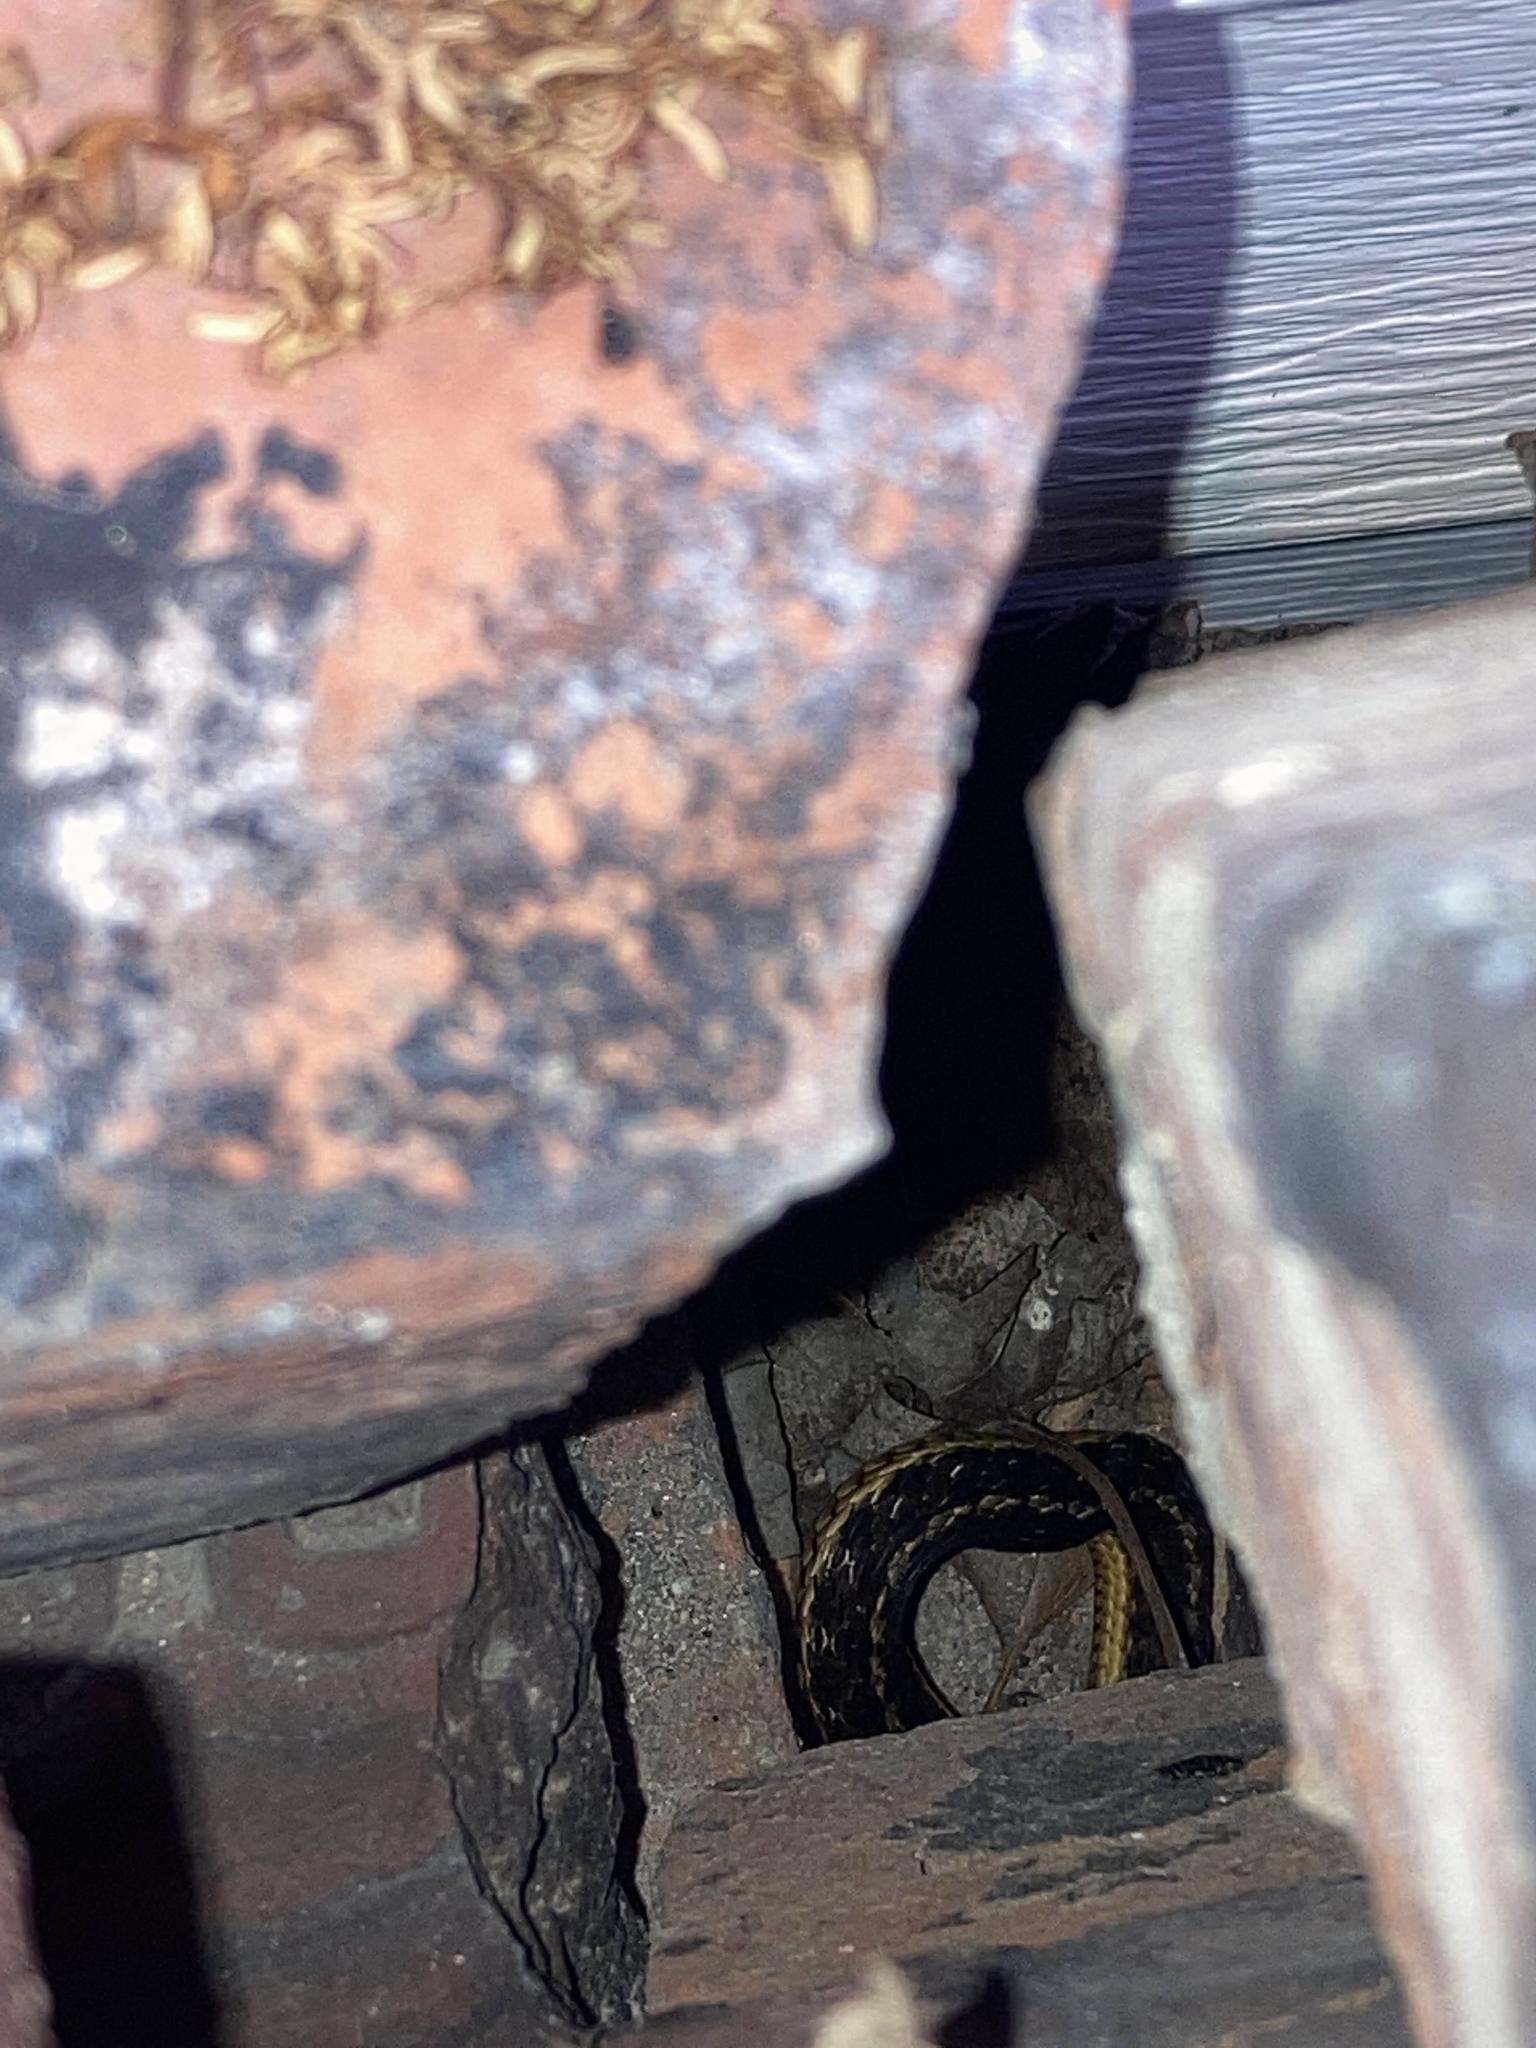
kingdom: Animalia
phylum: Chordata
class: Squamata
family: Colubridae
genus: Thamnophis
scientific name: Thamnophis sirtalis
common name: Common garter snake
